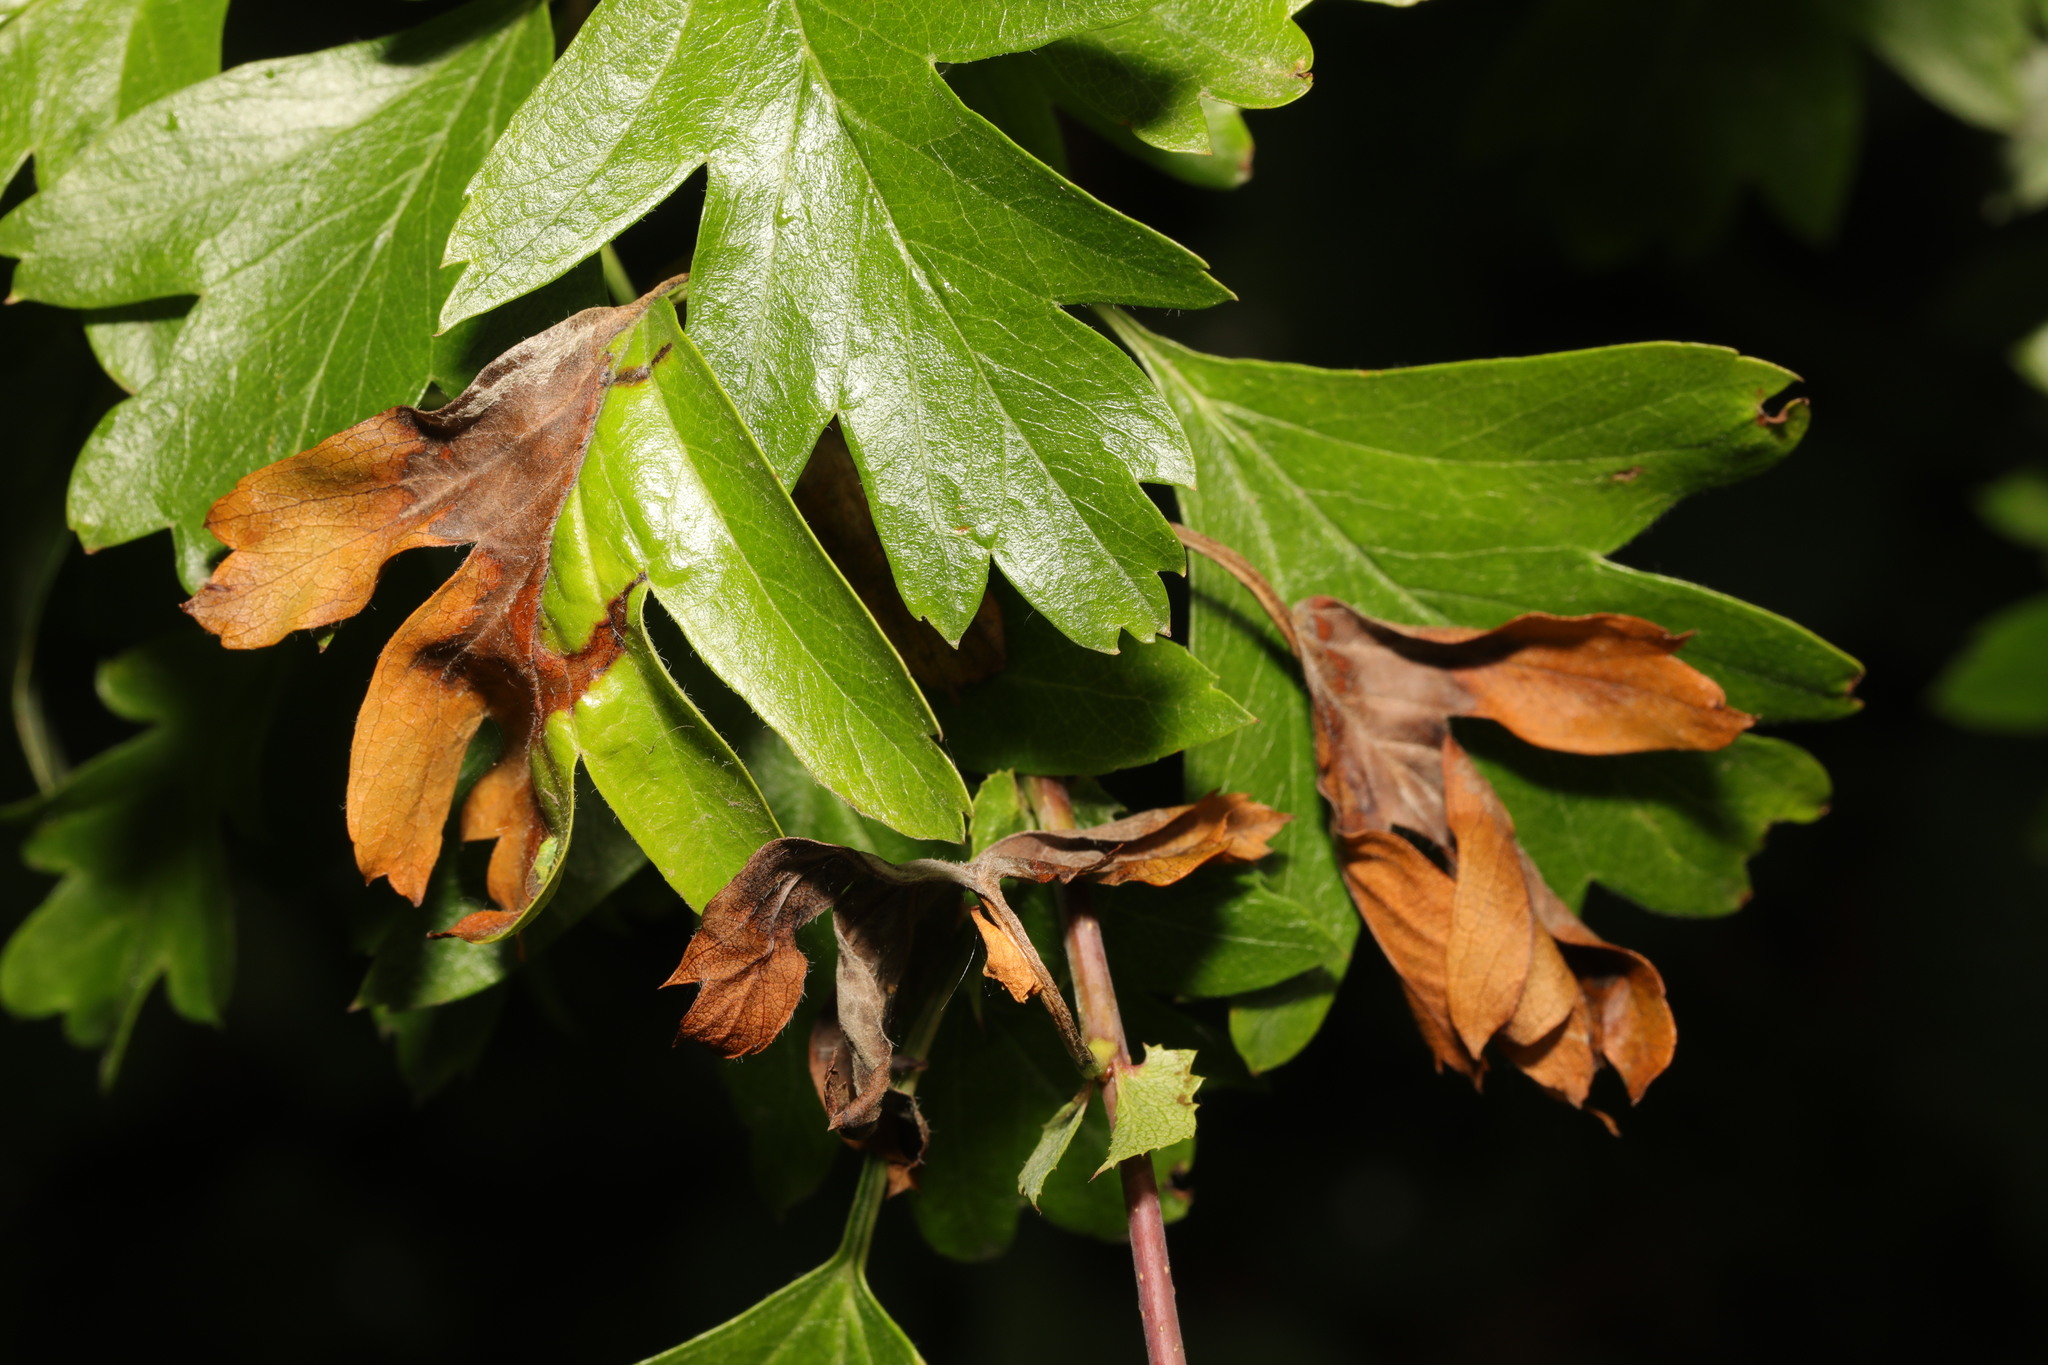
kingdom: Fungi
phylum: Ascomycota
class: Leotiomycetes
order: Helotiales
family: Sclerotiniaceae
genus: Monilinia
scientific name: Monilinia johnsonii
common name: Haw goblet
